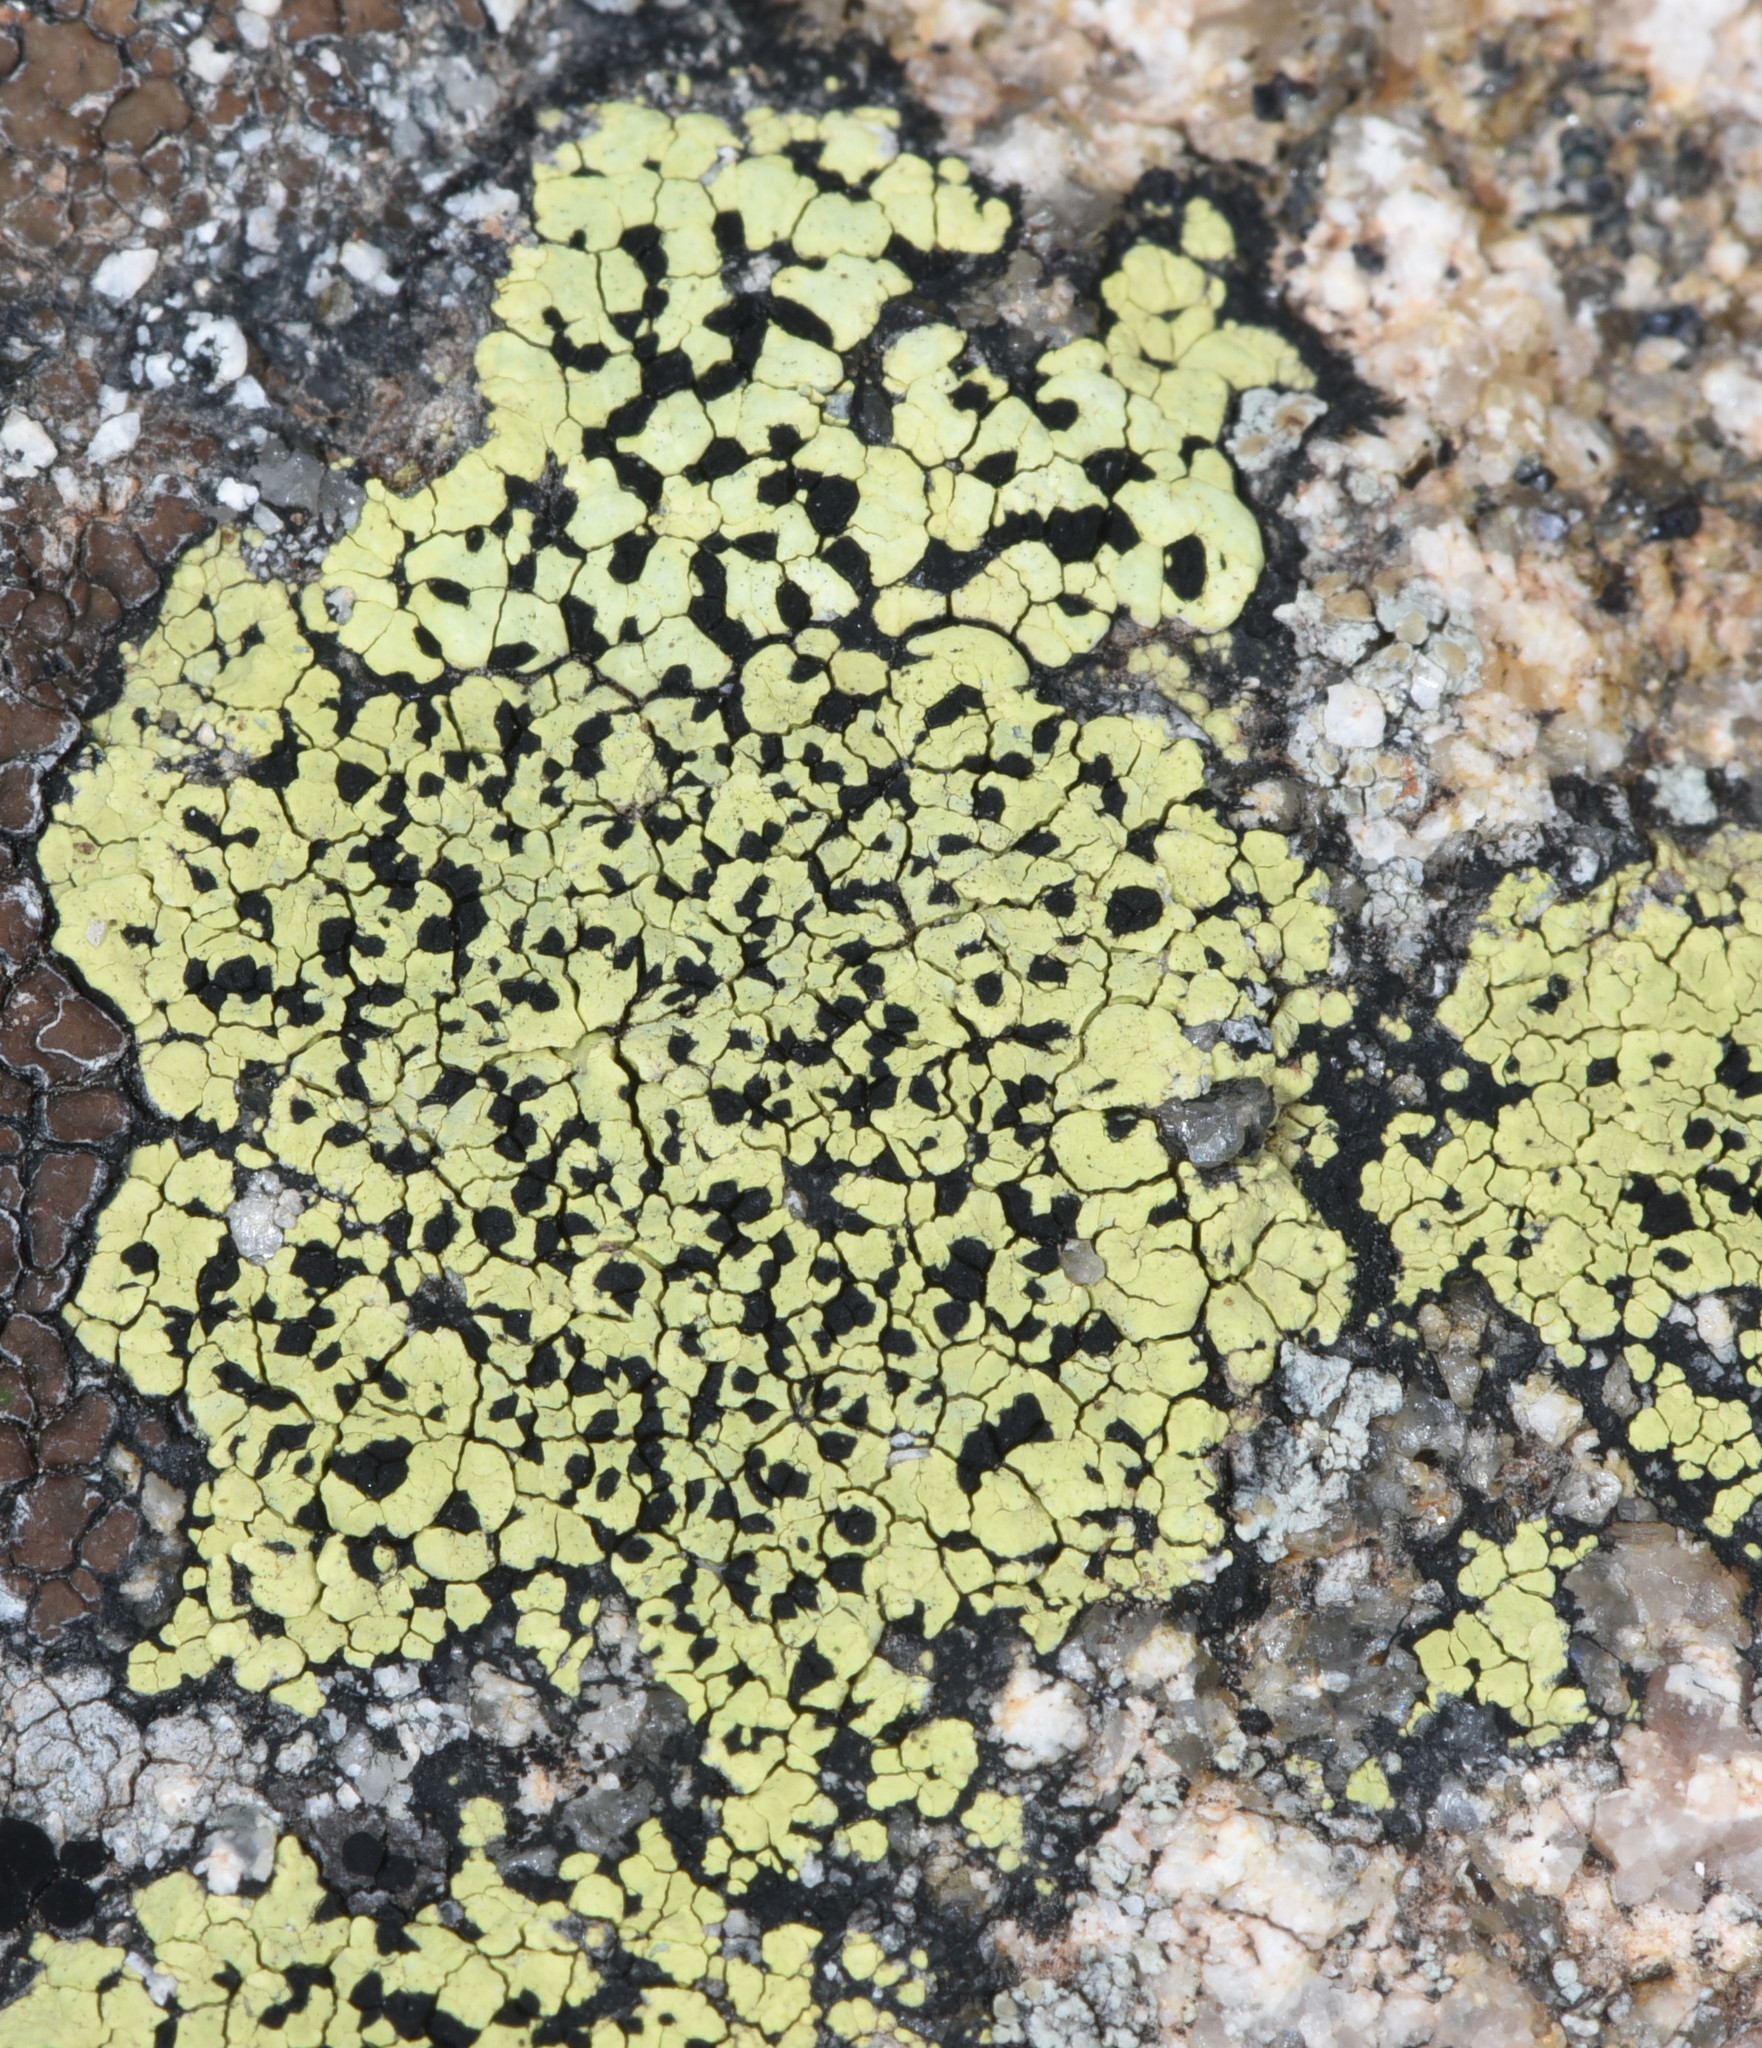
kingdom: Fungi
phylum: Ascomycota
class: Lecanoromycetes
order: Rhizocarpales
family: Rhizocarpaceae
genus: Rhizocarpon
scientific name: Rhizocarpon geographicum
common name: Yellow map lichen
